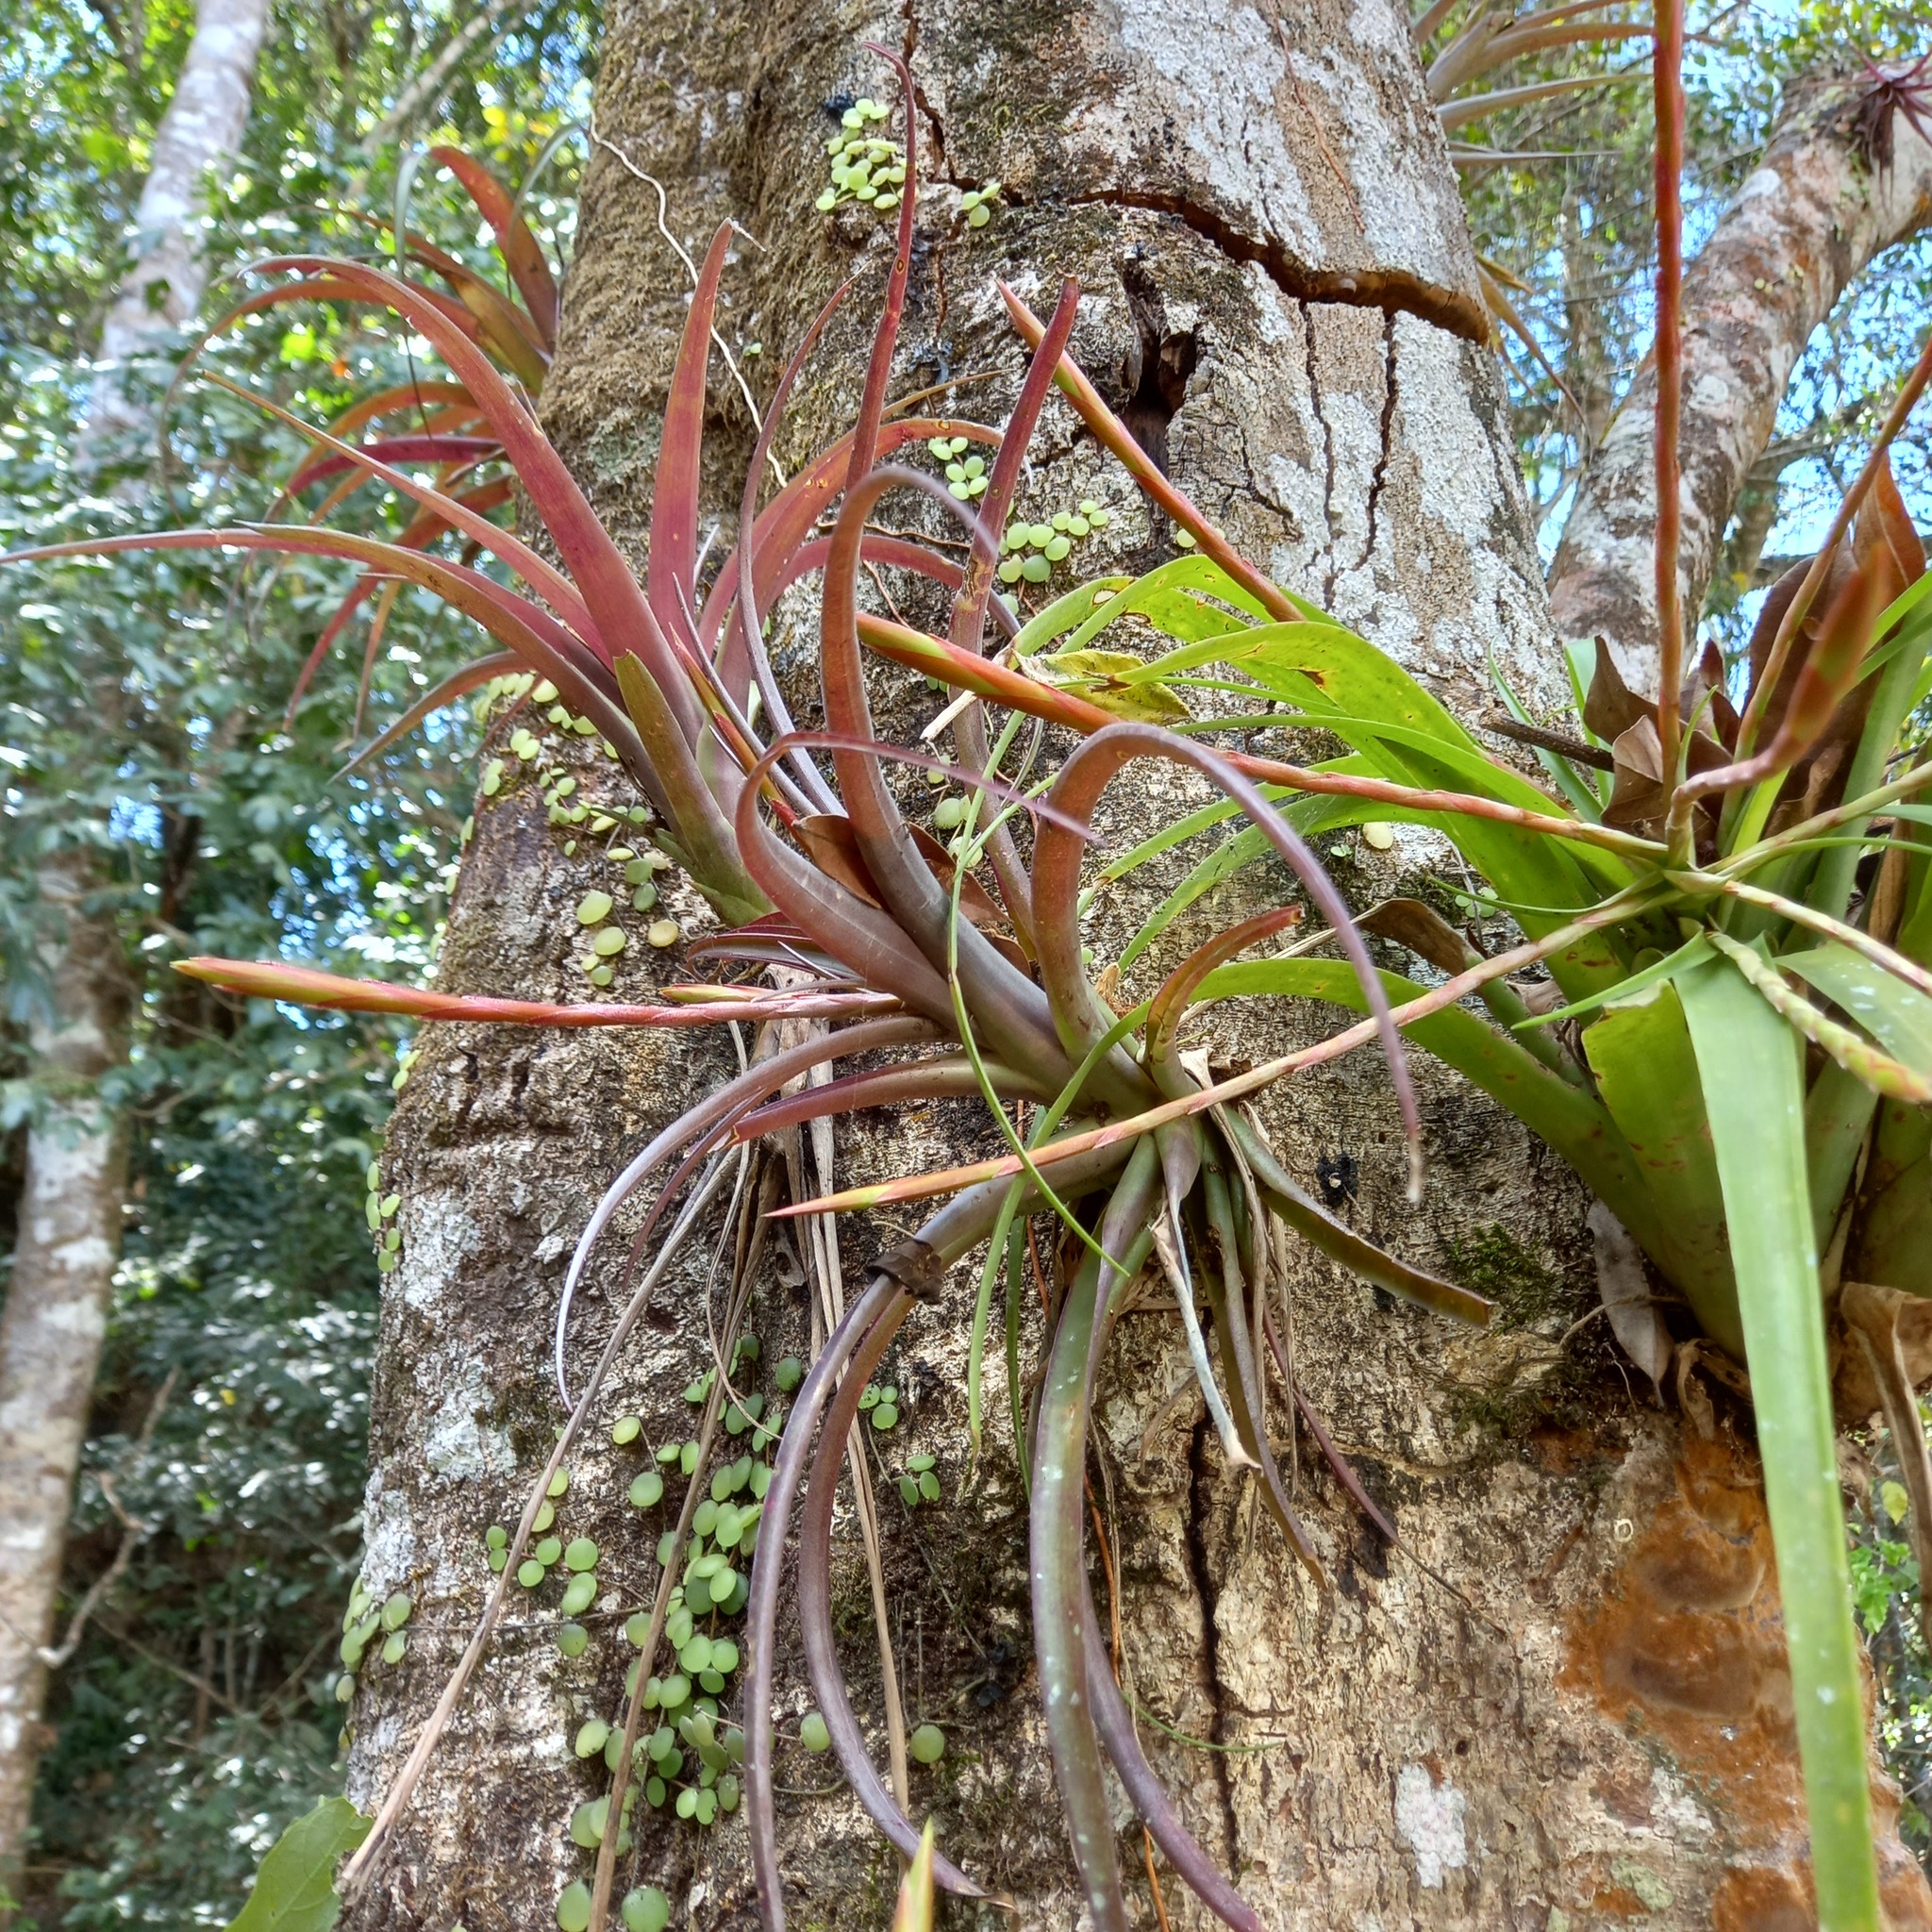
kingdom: Plantae
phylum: Tracheophyta
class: Liliopsida
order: Poales
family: Bromeliaceae
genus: Tillandsia
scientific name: Tillandsia flabellata
